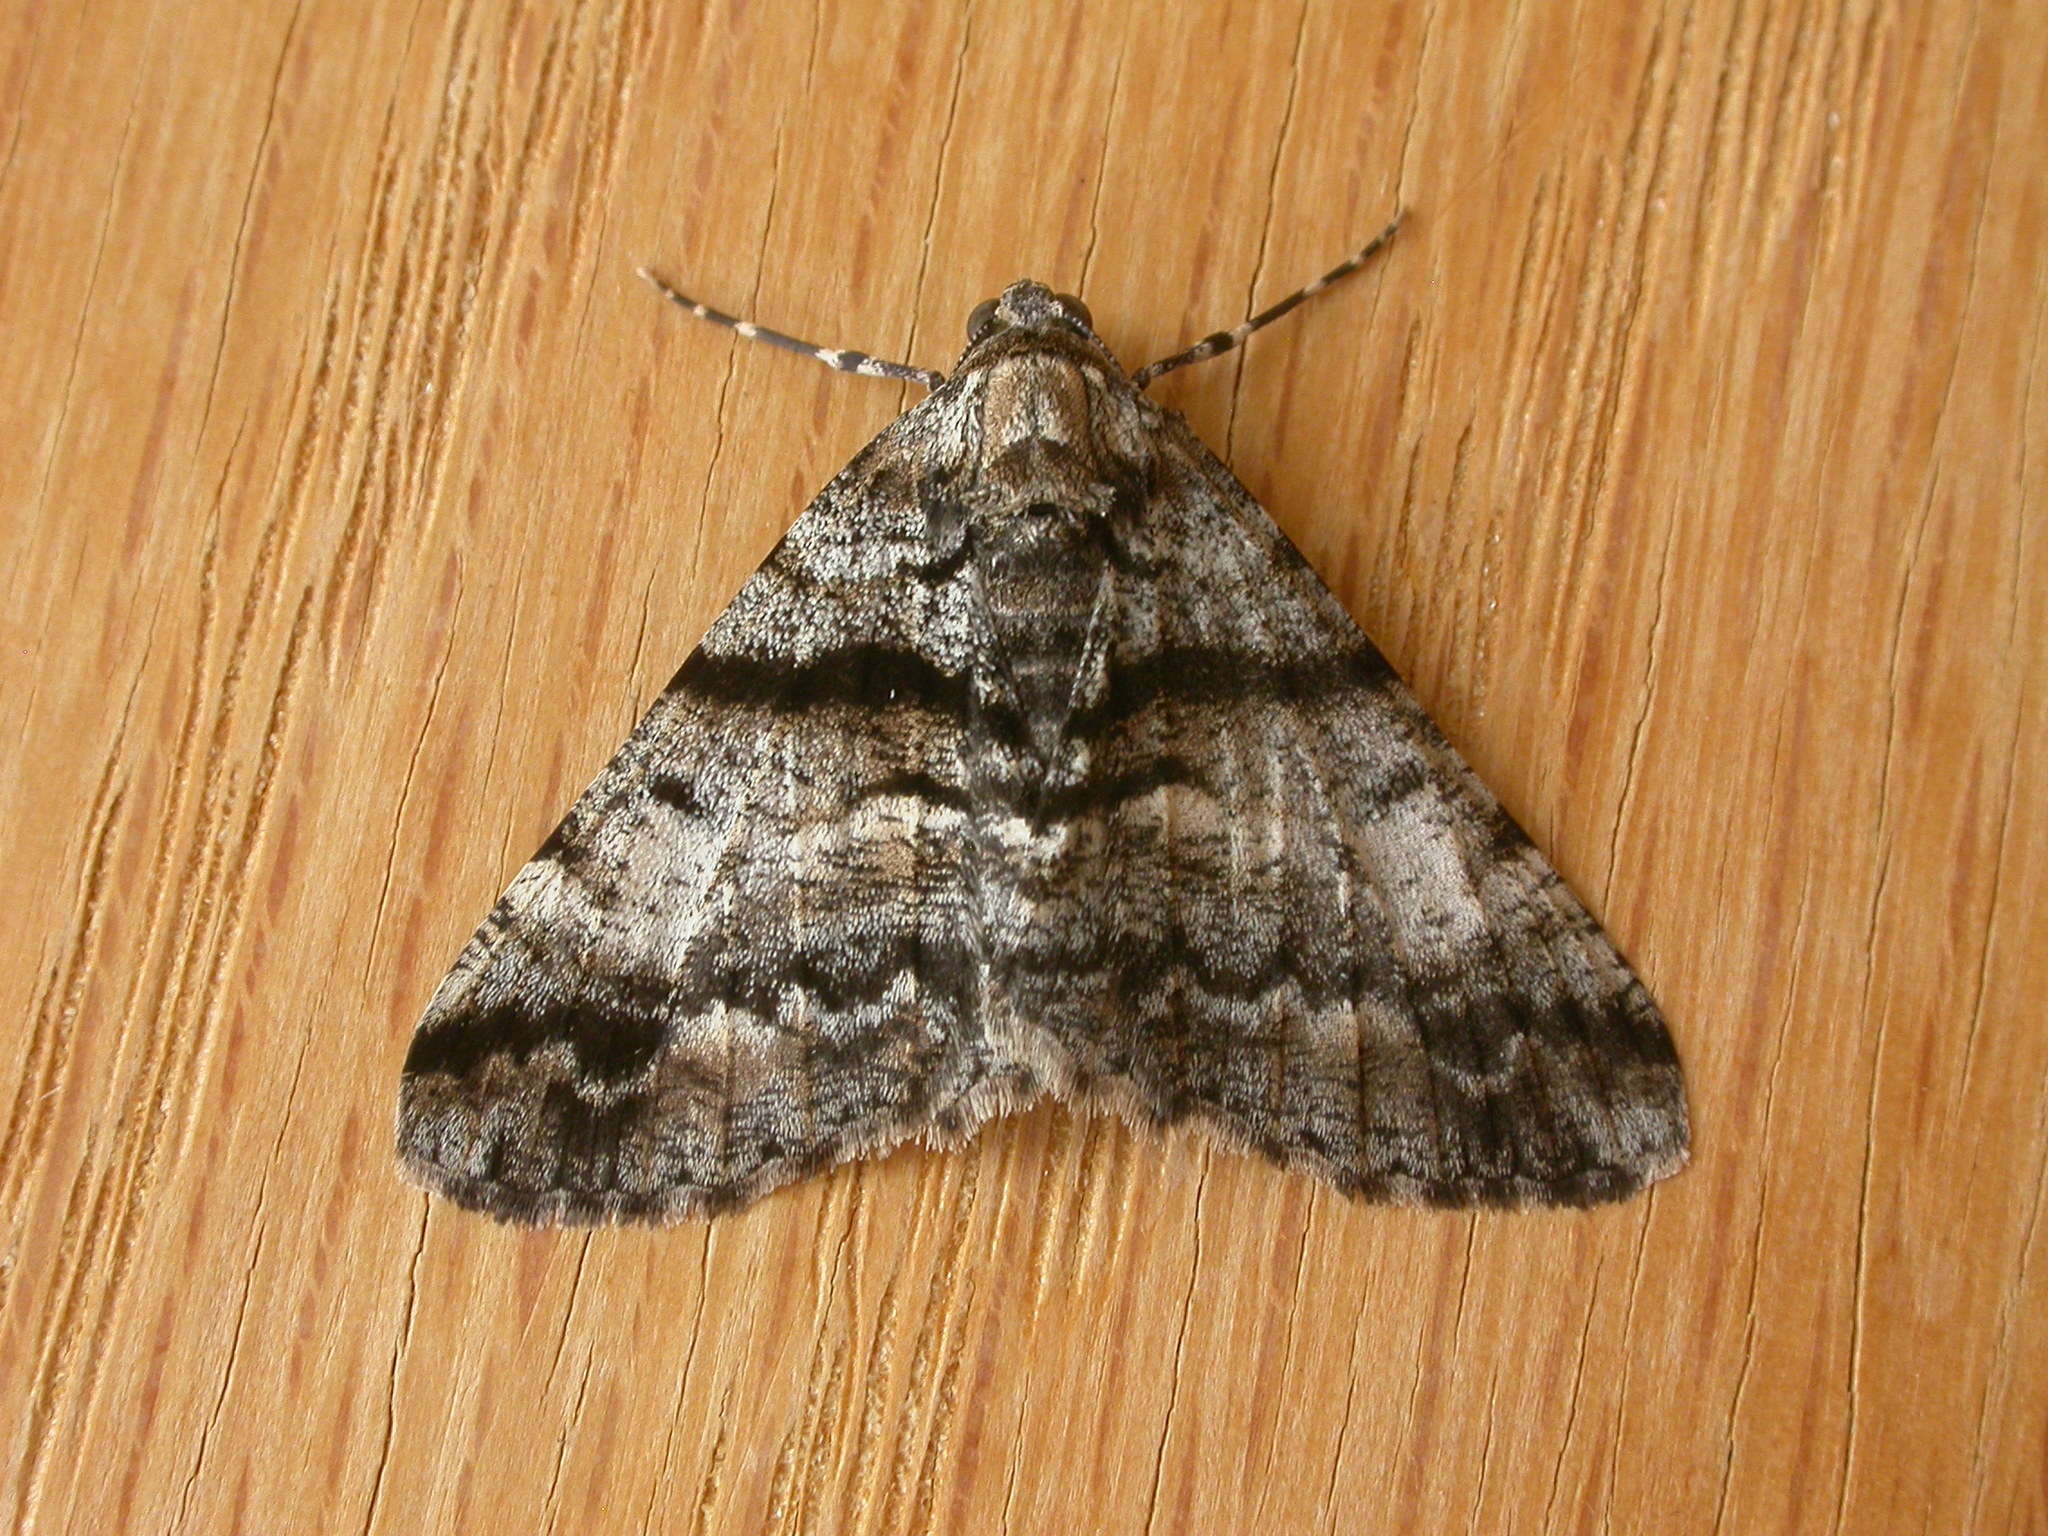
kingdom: Animalia
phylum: Arthropoda
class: Insecta
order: Lepidoptera
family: Geometridae
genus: Gastrinodes
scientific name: Gastrinodes argoplaca
